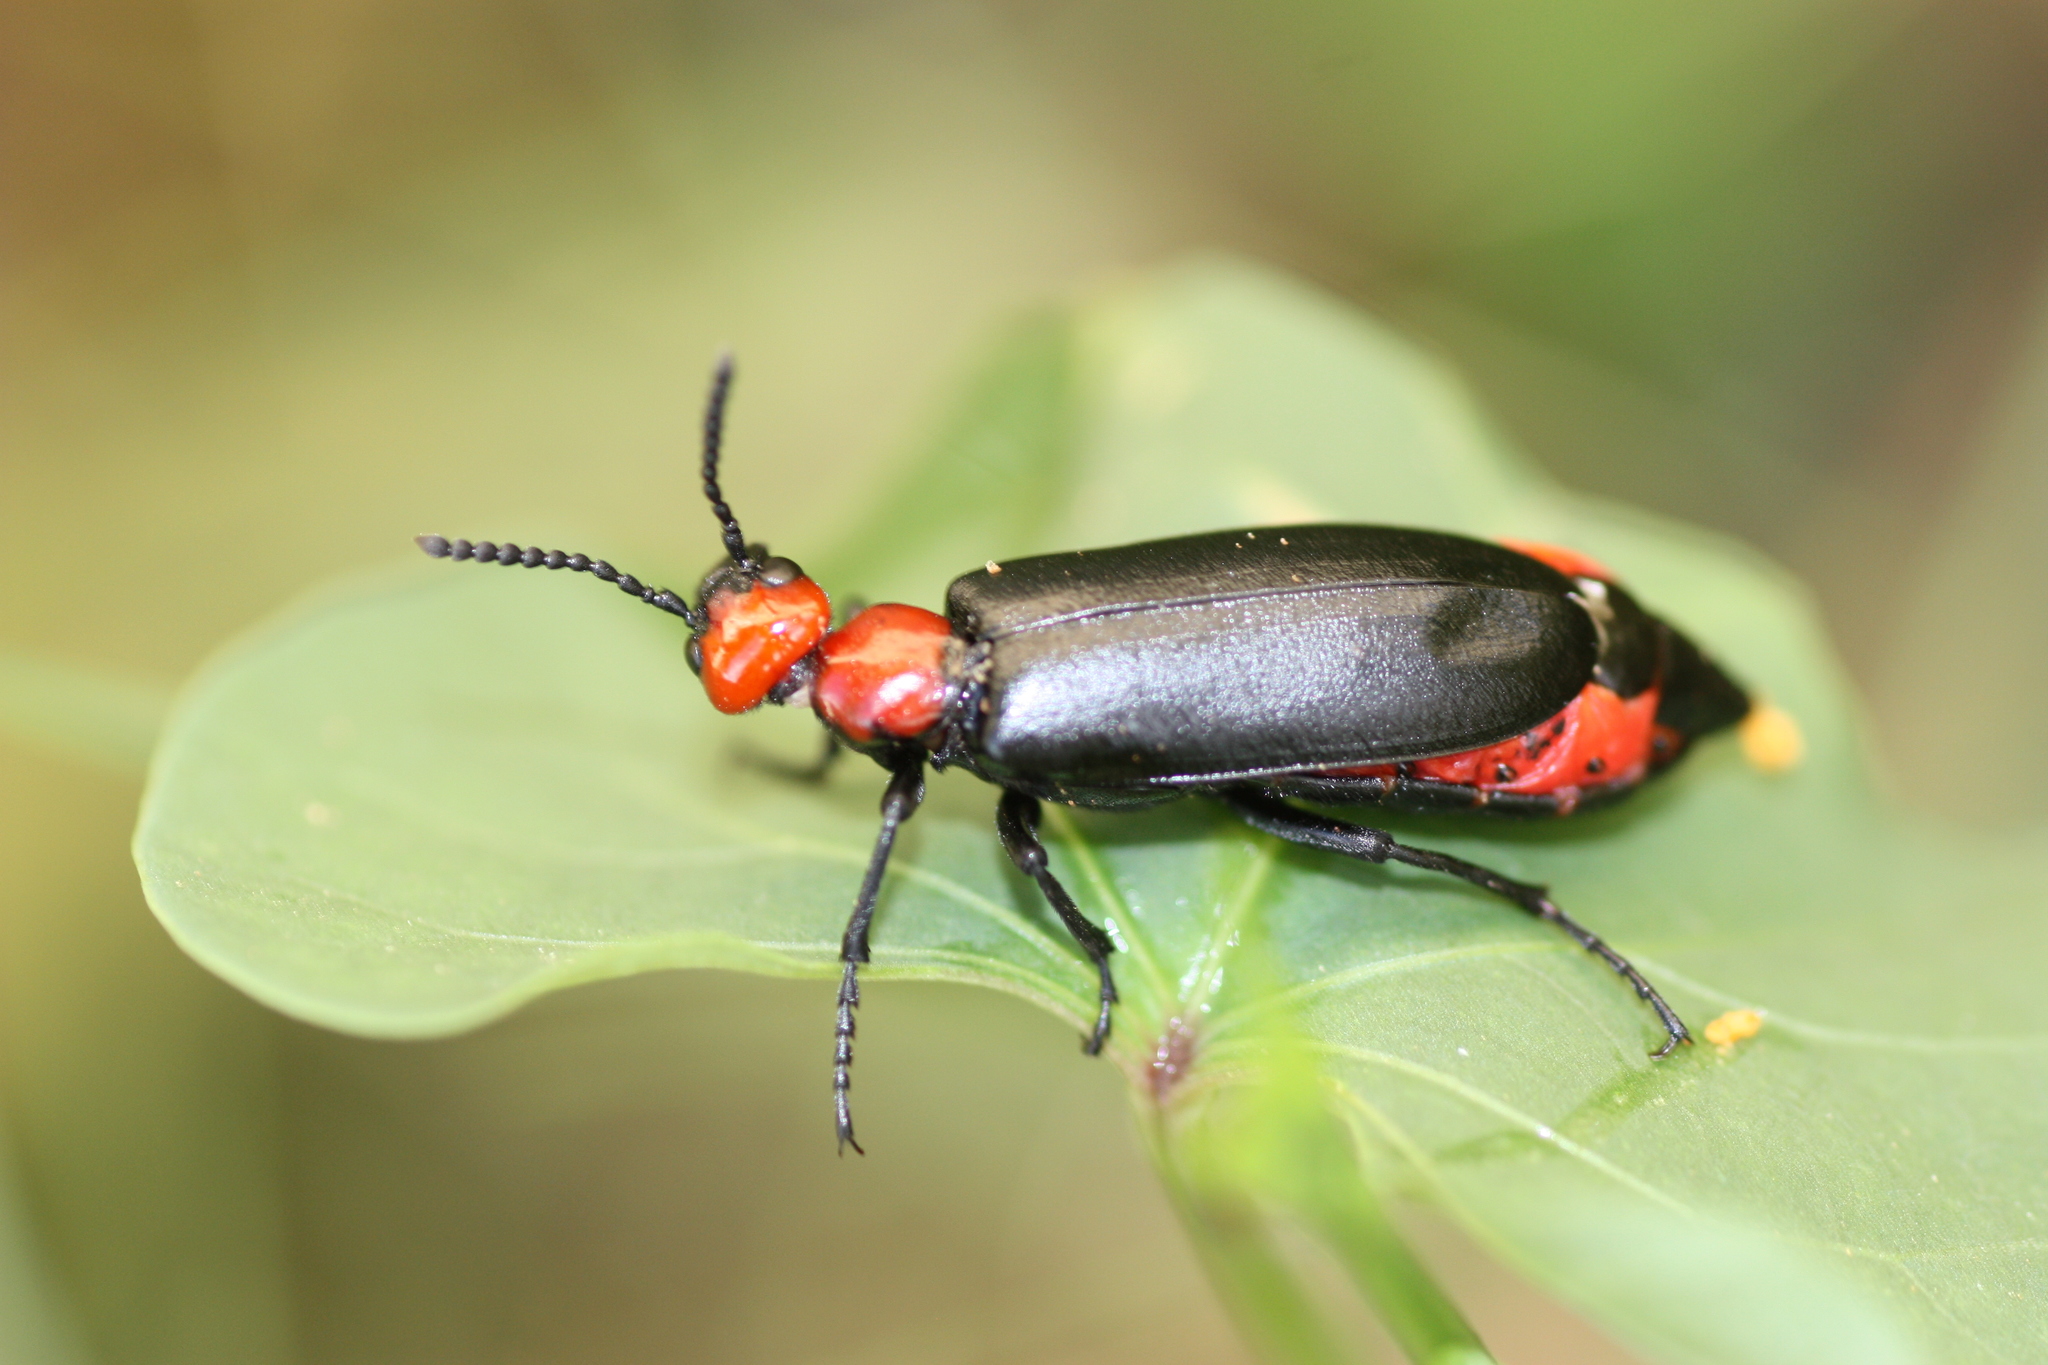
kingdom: Animalia
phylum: Arthropoda
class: Insecta
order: Coleoptera
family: Meloidae
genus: Lytta
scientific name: Lytta mutilata
